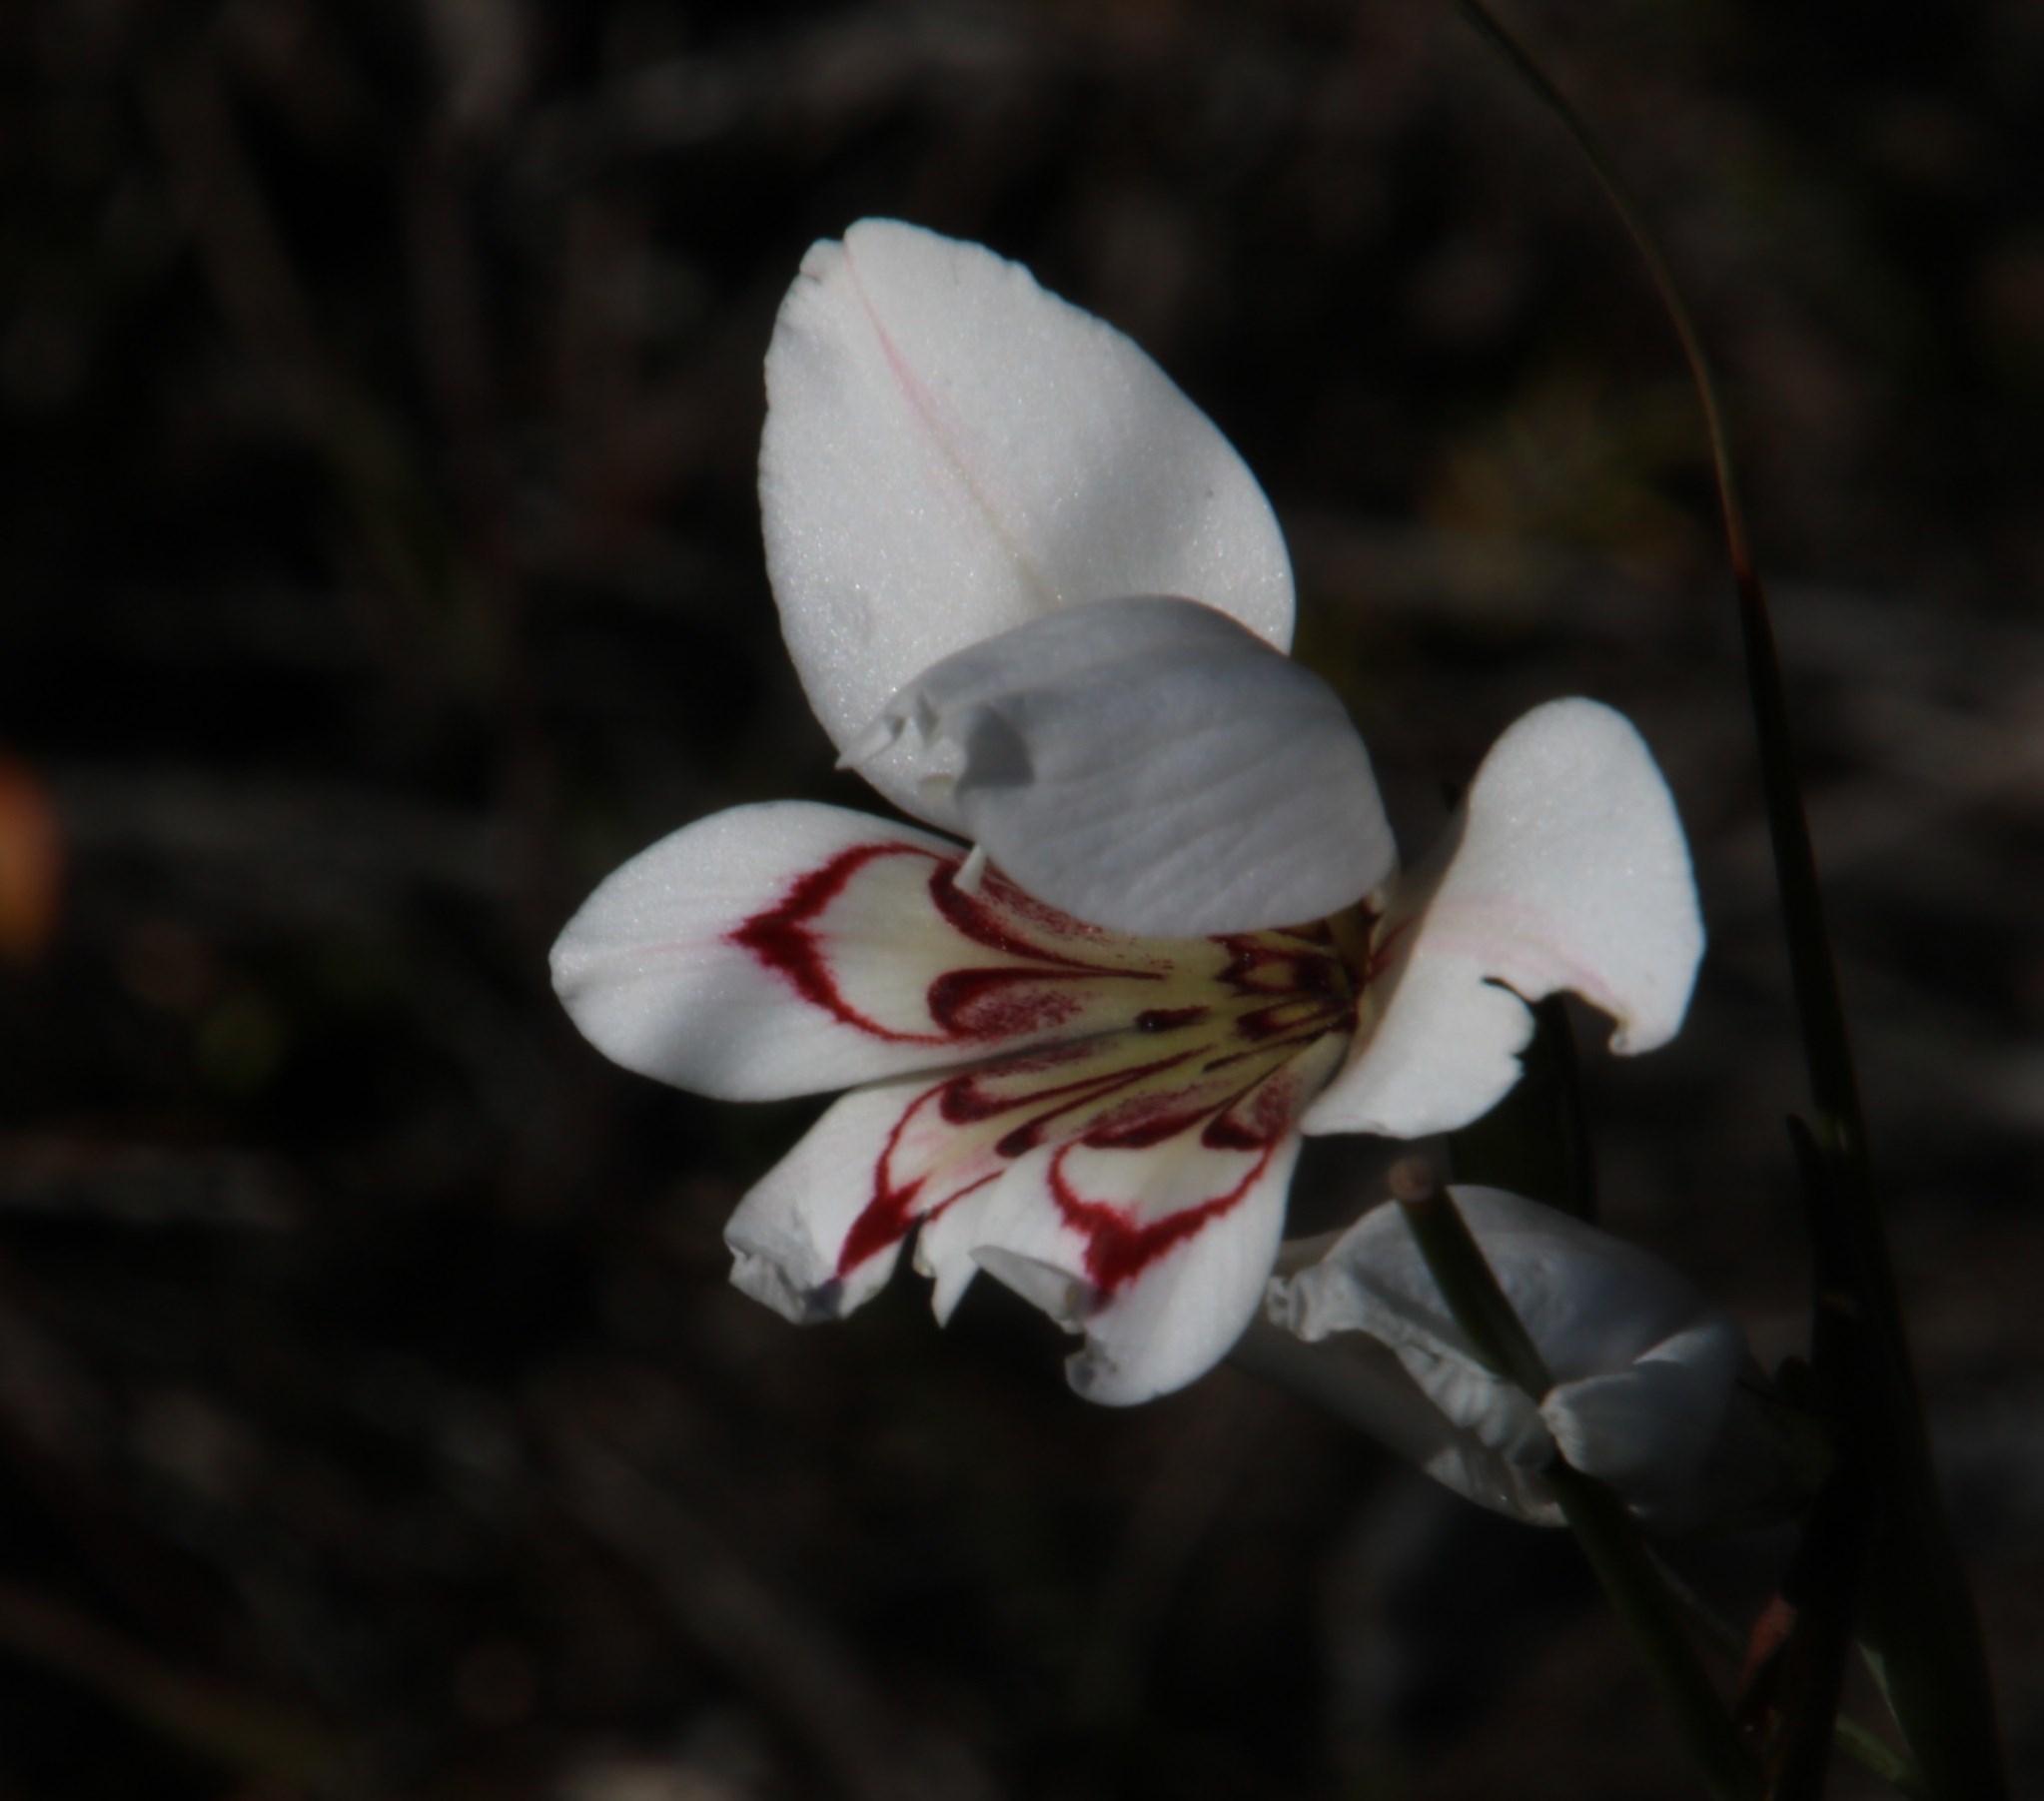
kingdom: Plantae
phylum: Tracheophyta
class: Liliopsida
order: Asparagales
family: Iridaceae
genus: Gladiolus
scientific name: Gladiolus debilis
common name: Painted-lady
